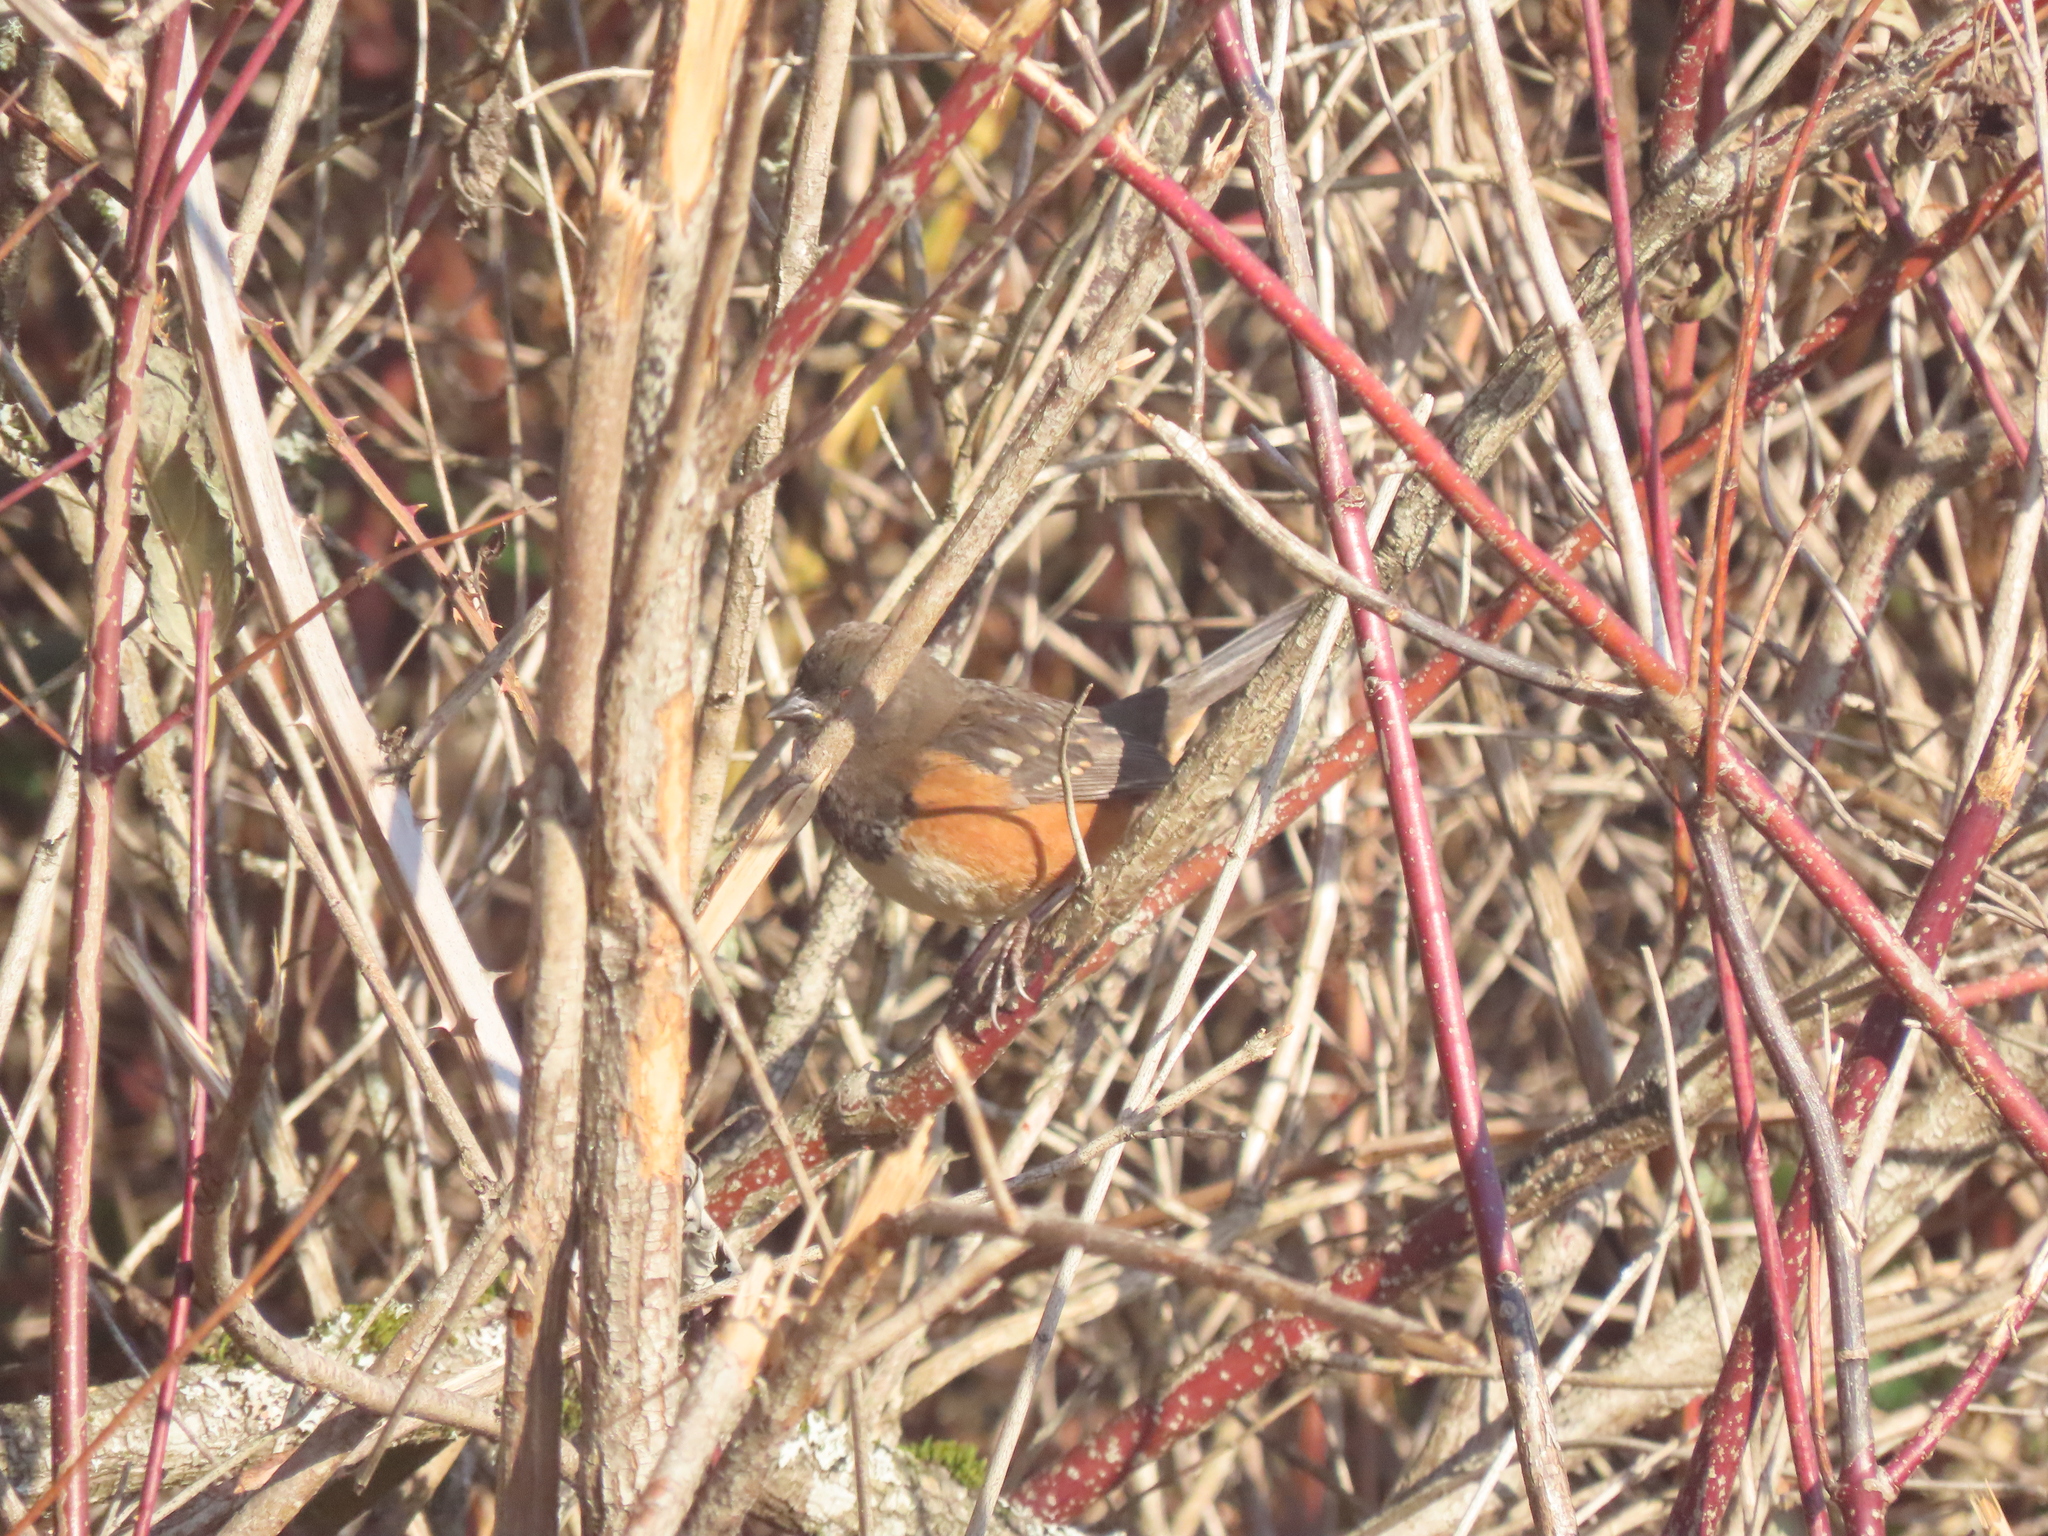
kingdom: Animalia
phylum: Chordata
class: Aves
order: Passeriformes
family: Passerellidae
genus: Pipilo
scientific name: Pipilo maculatus
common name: Spotted towhee
